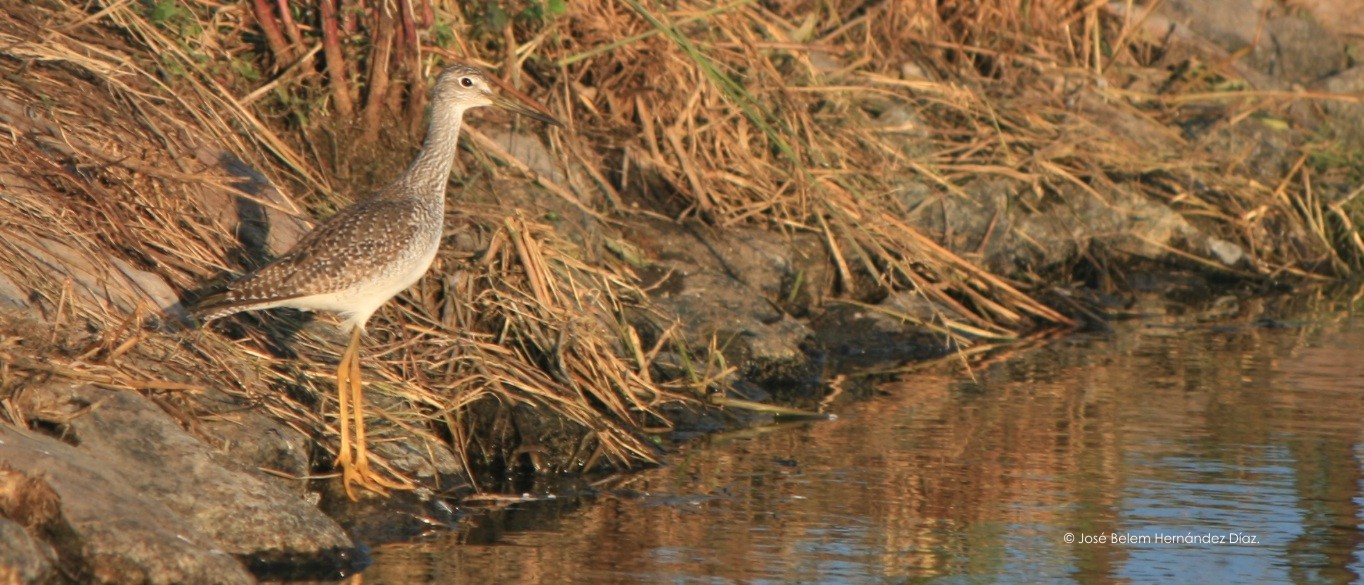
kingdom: Animalia
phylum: Chordata
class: Aves
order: Charadriiformes
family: Scolopacidae
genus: Tringa
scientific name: Tringa melanoleuca
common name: Greater yellowlegs
